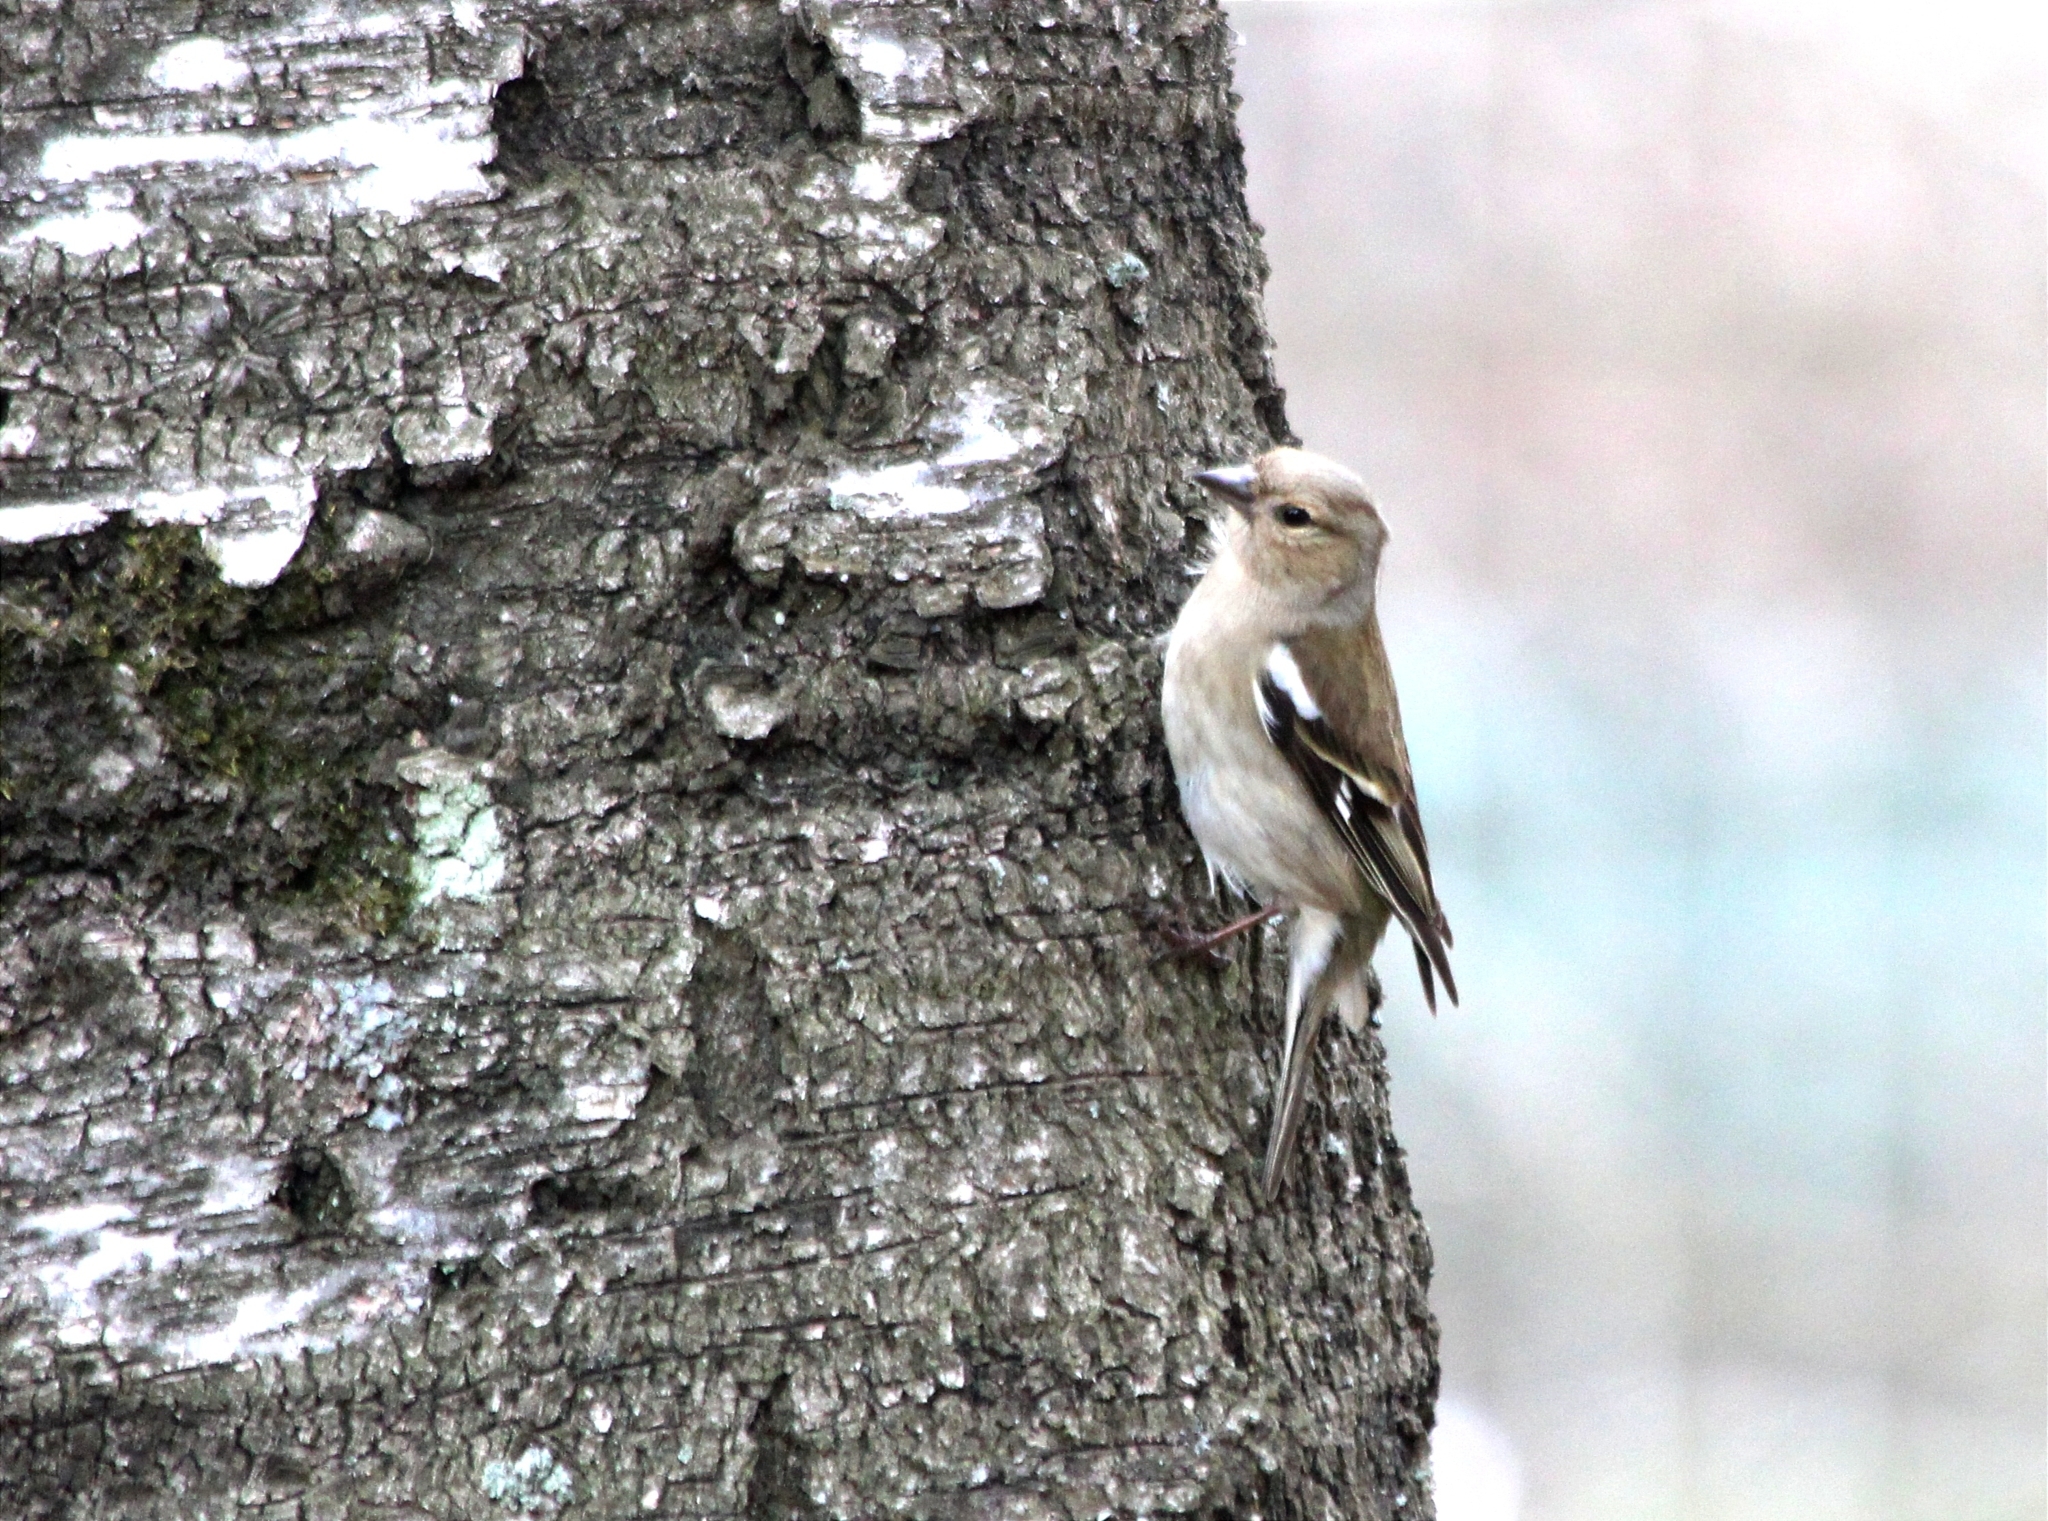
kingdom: Animalia
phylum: Chordata
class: Aves
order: Passeriformes
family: Fringillidae
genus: Fringilla
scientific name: Fringilla coelebs
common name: Common chaffinch
